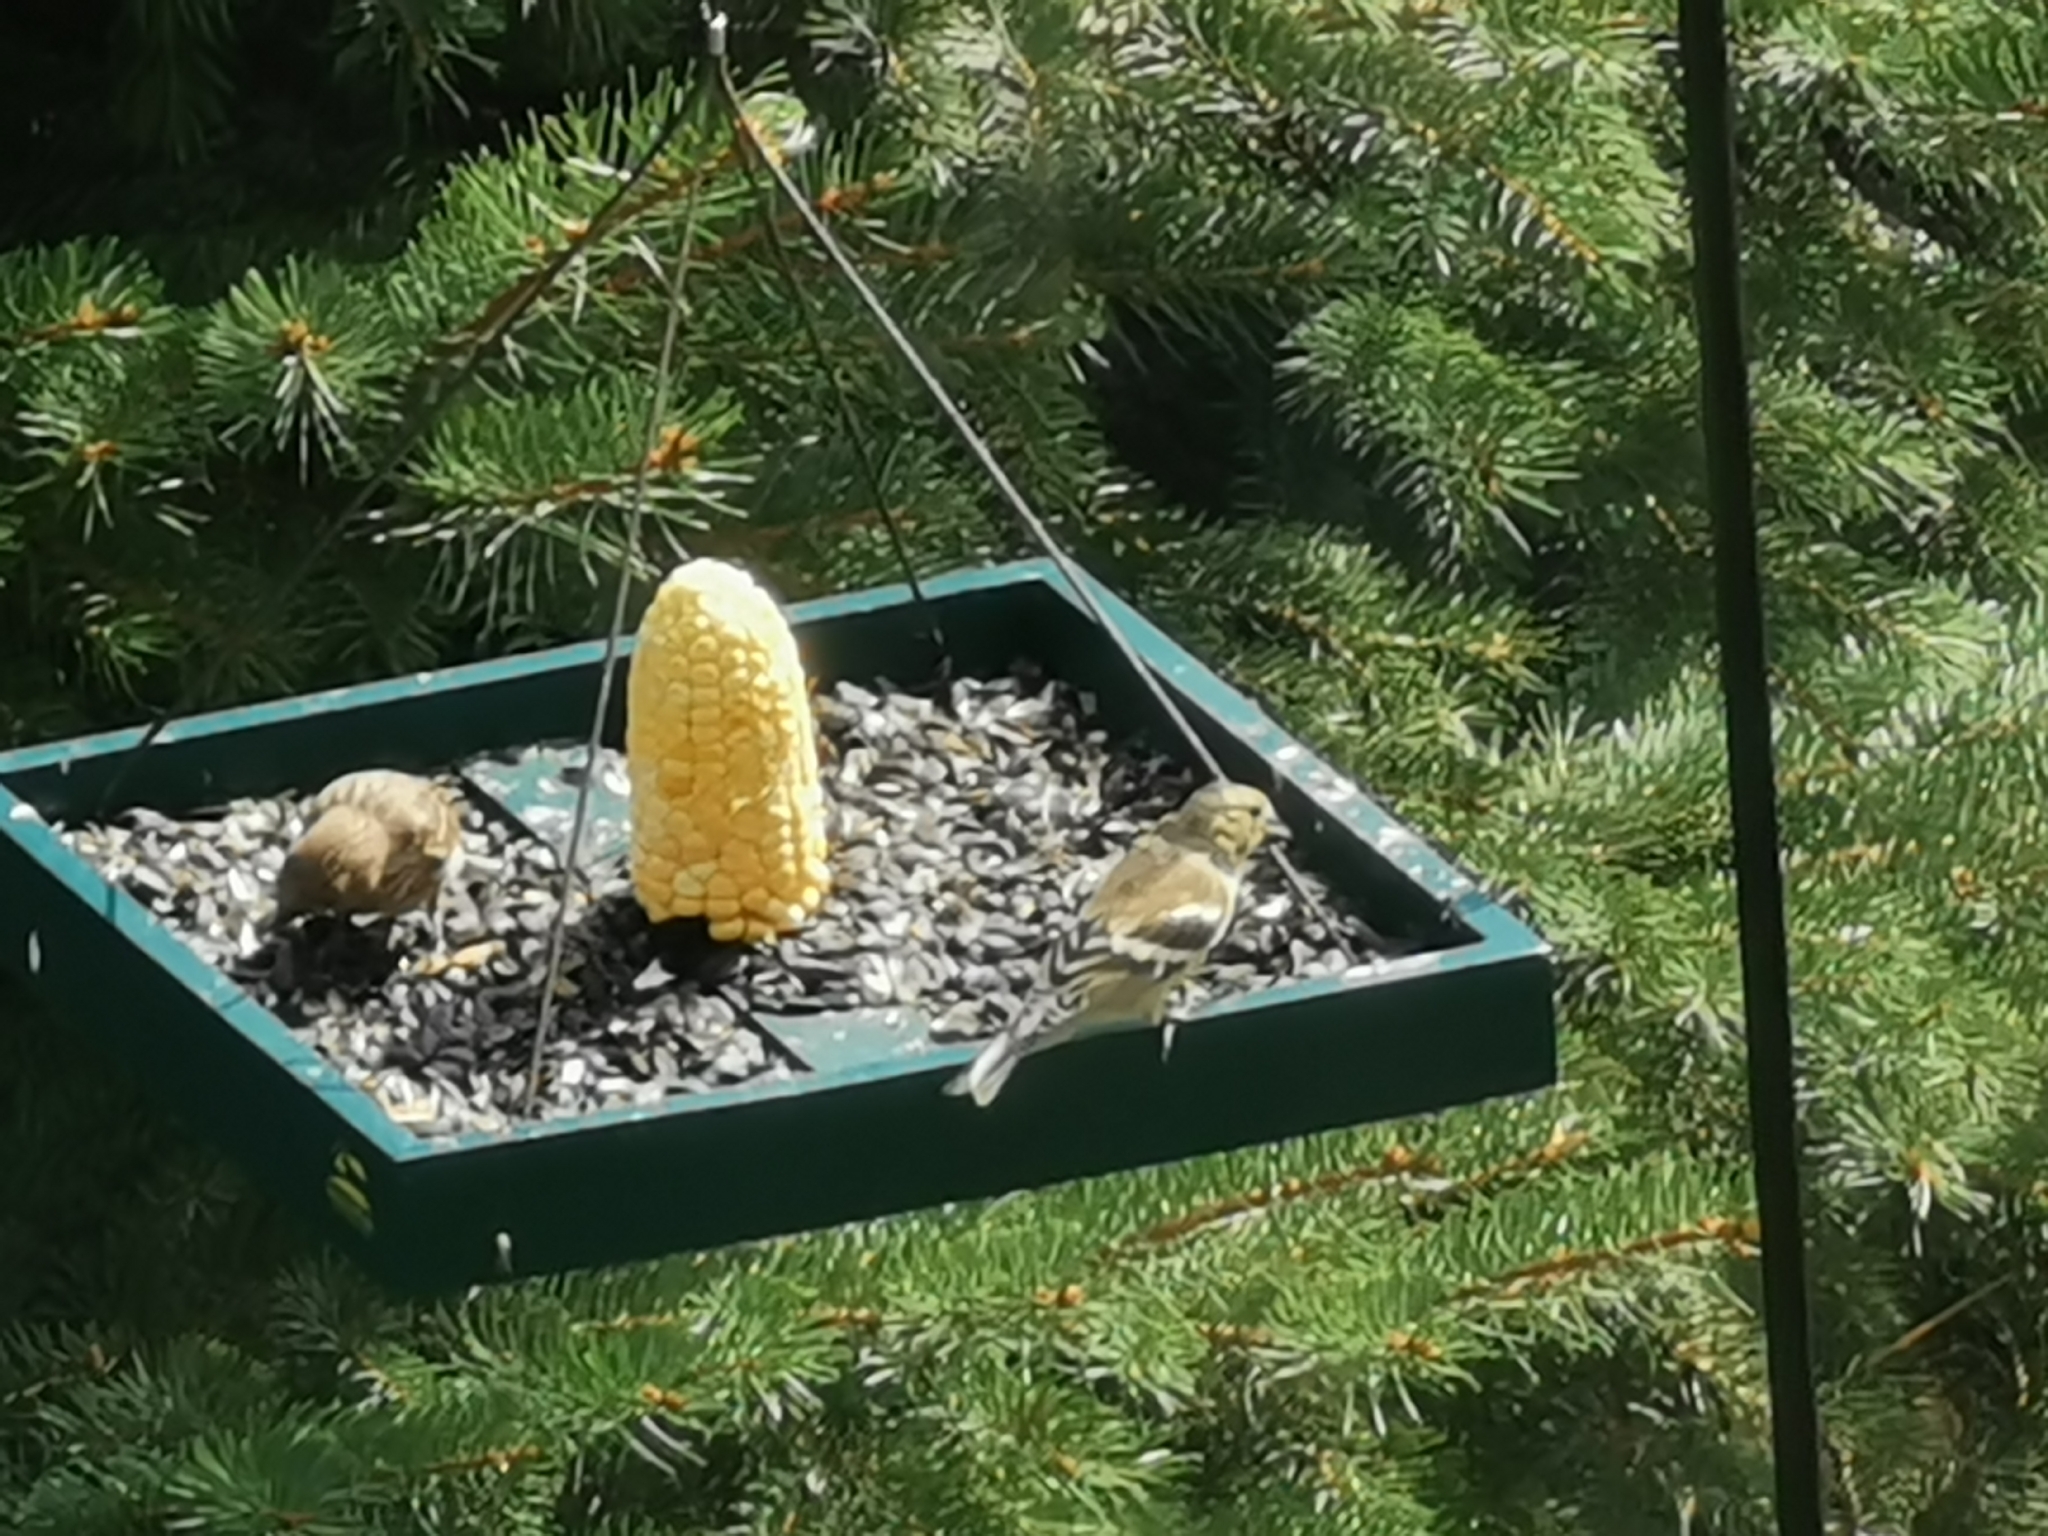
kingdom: Animalia
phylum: Chordata
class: Aves
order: Passeriformes
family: Fringillidae
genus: Spinus
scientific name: Spinus tristis
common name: American goldfinch
